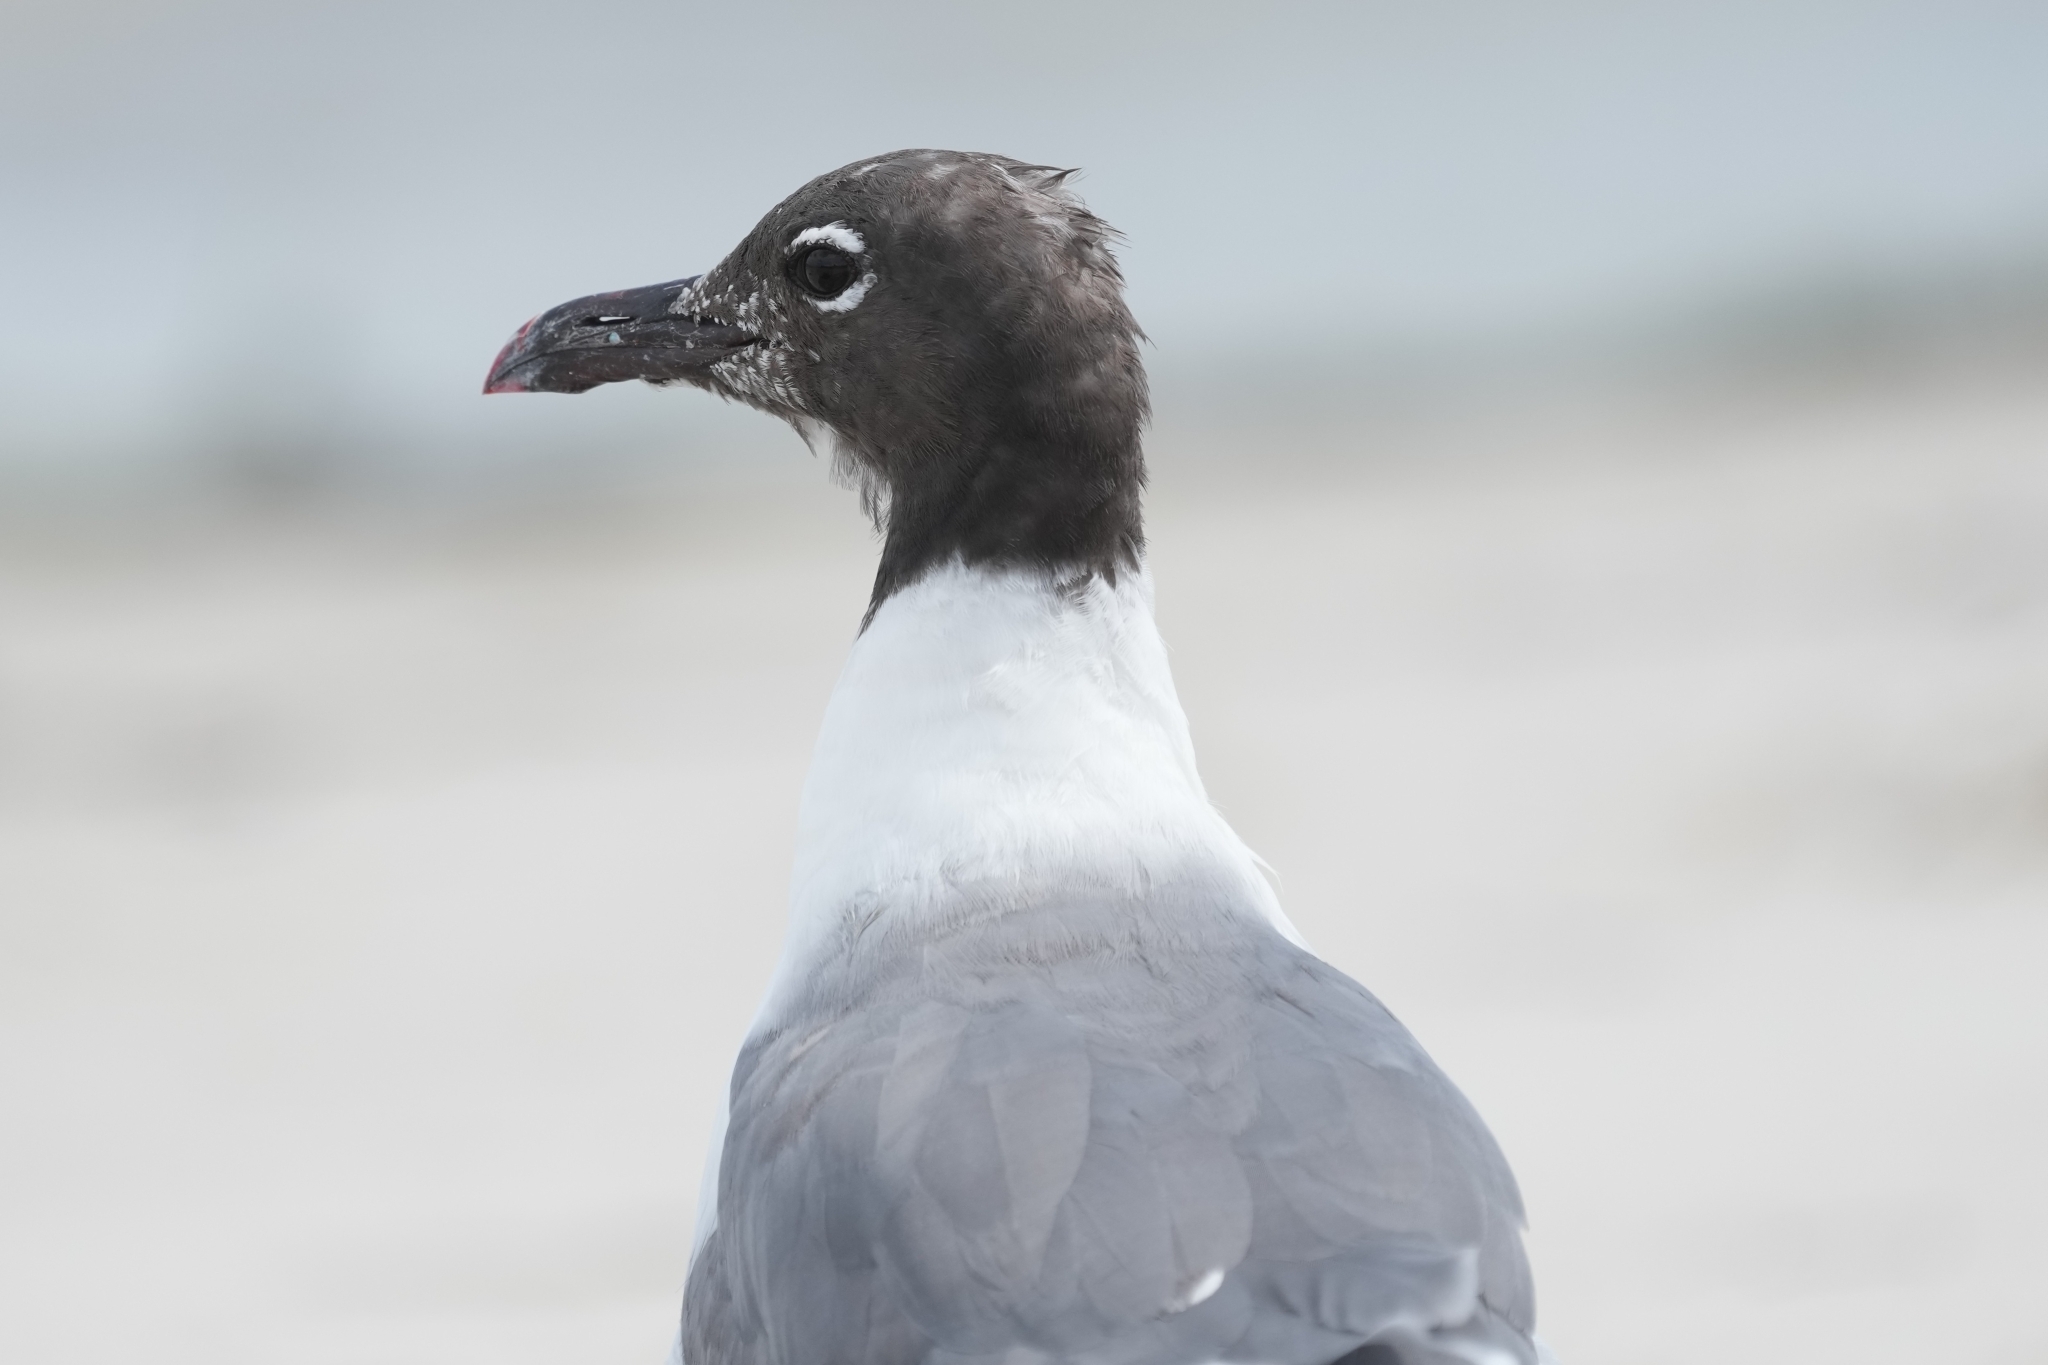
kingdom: Animalia
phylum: Chordata
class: Aves
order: Charadriiformes
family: Laridae
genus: Leucophaeus
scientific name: Leucophaeus atricilla
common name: Laughing gull
